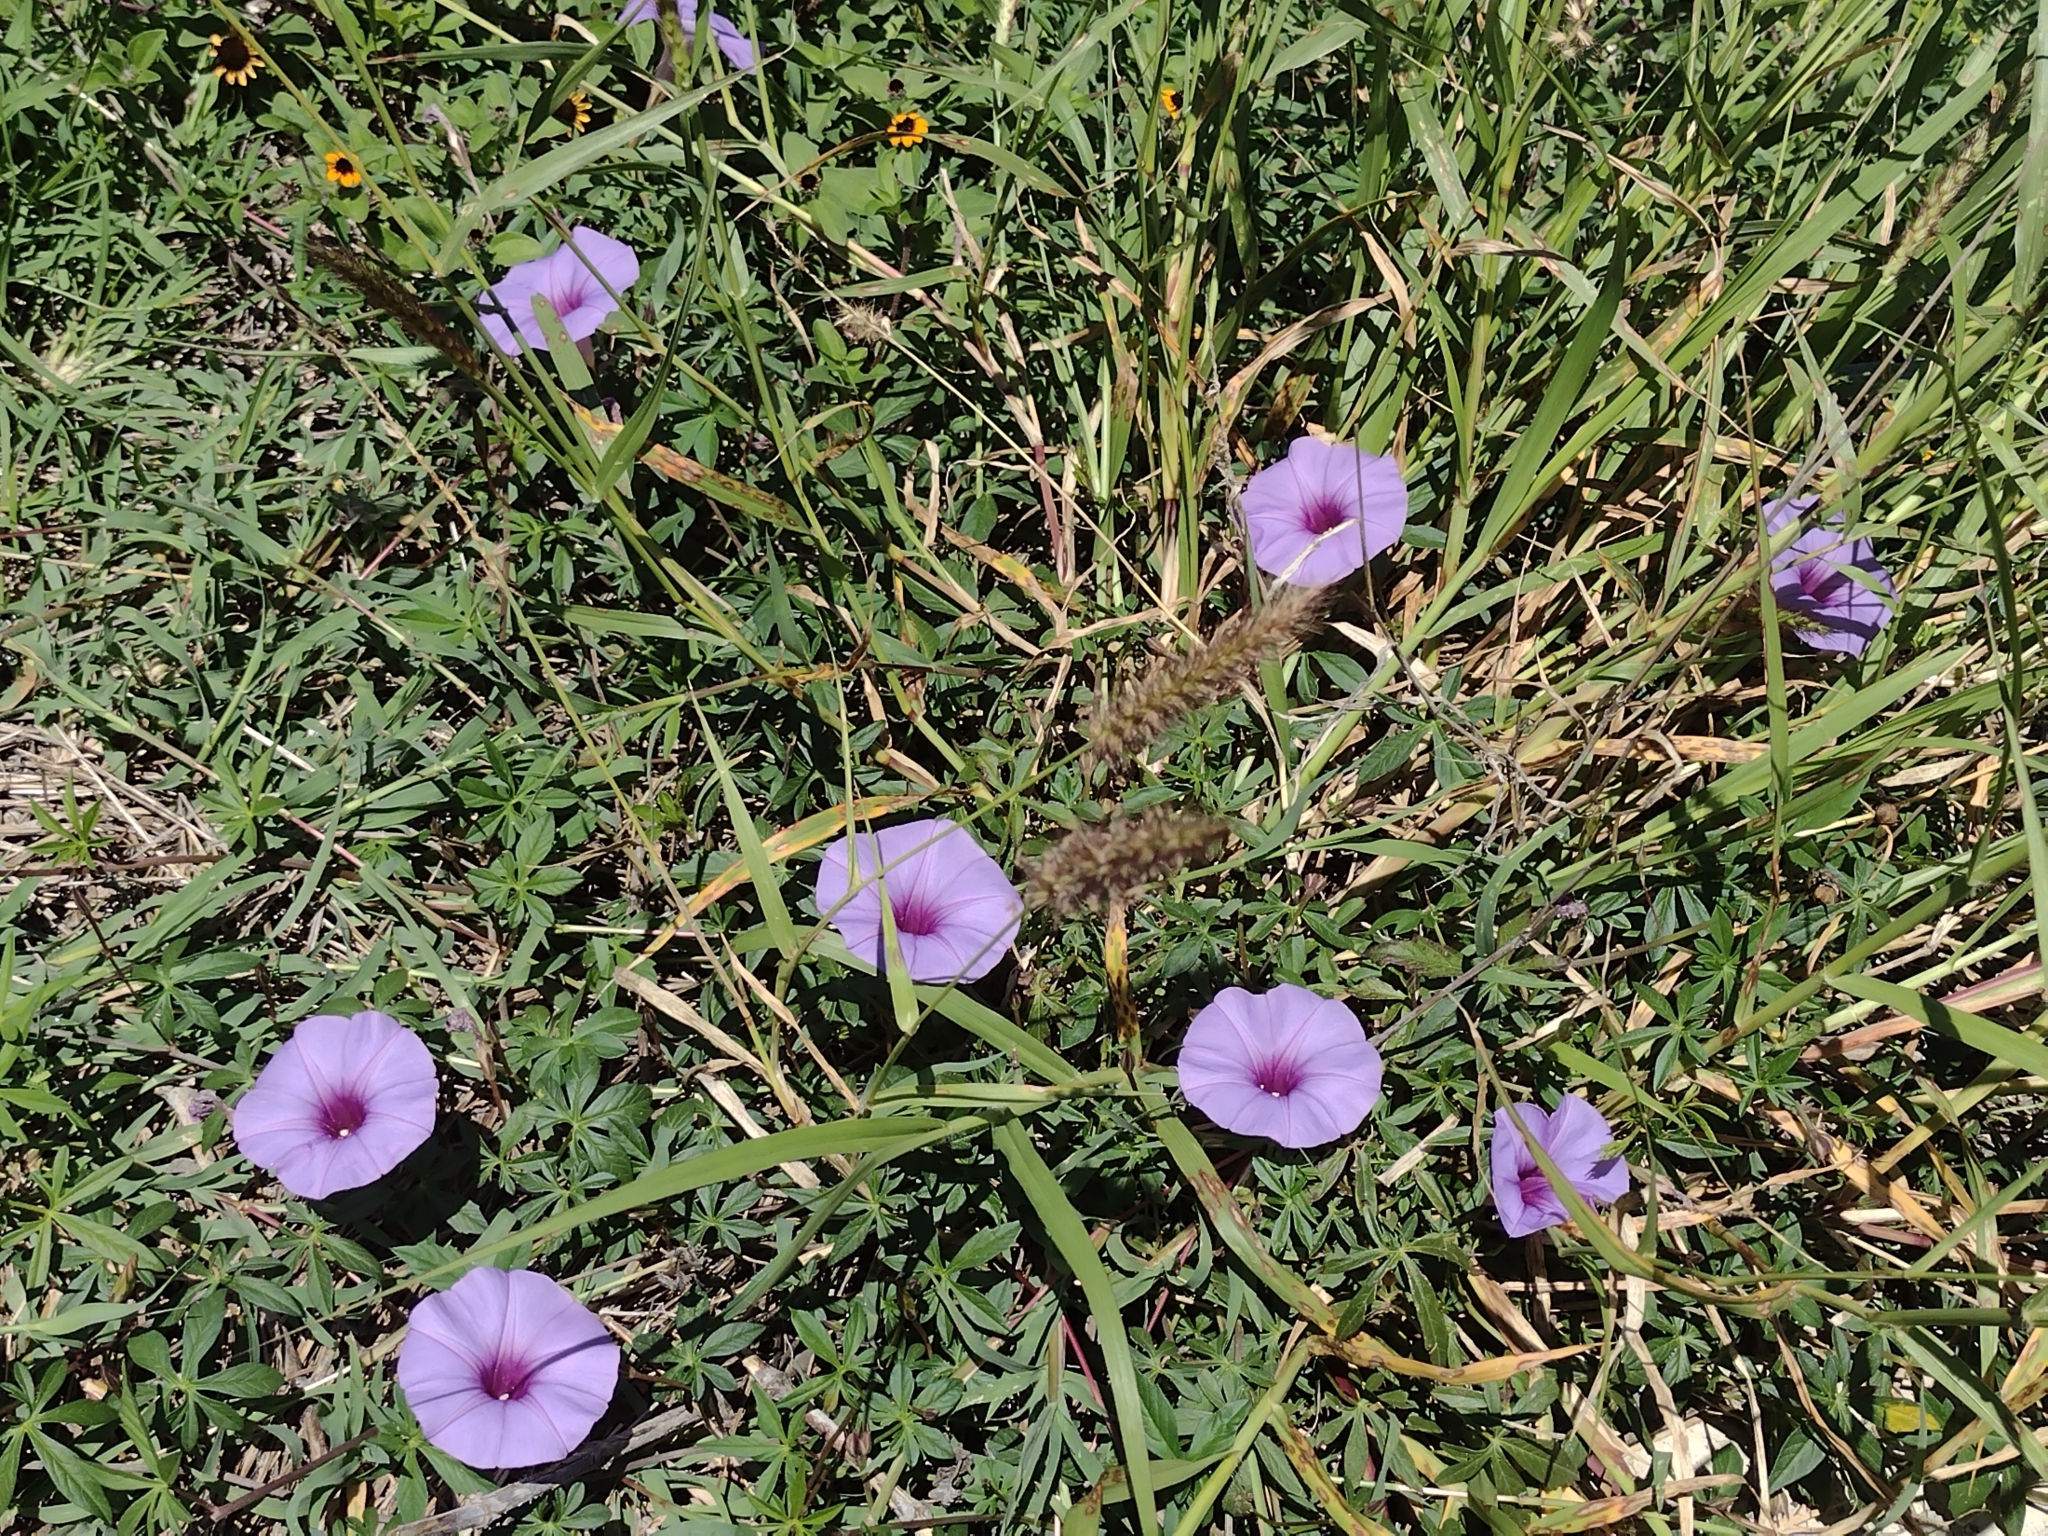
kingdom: Plantae
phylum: Tracheophyta
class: Magnoliopsida
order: Solanales
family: Convolvulaceae
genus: Ipomoea
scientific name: Ipomoea ternifolia
